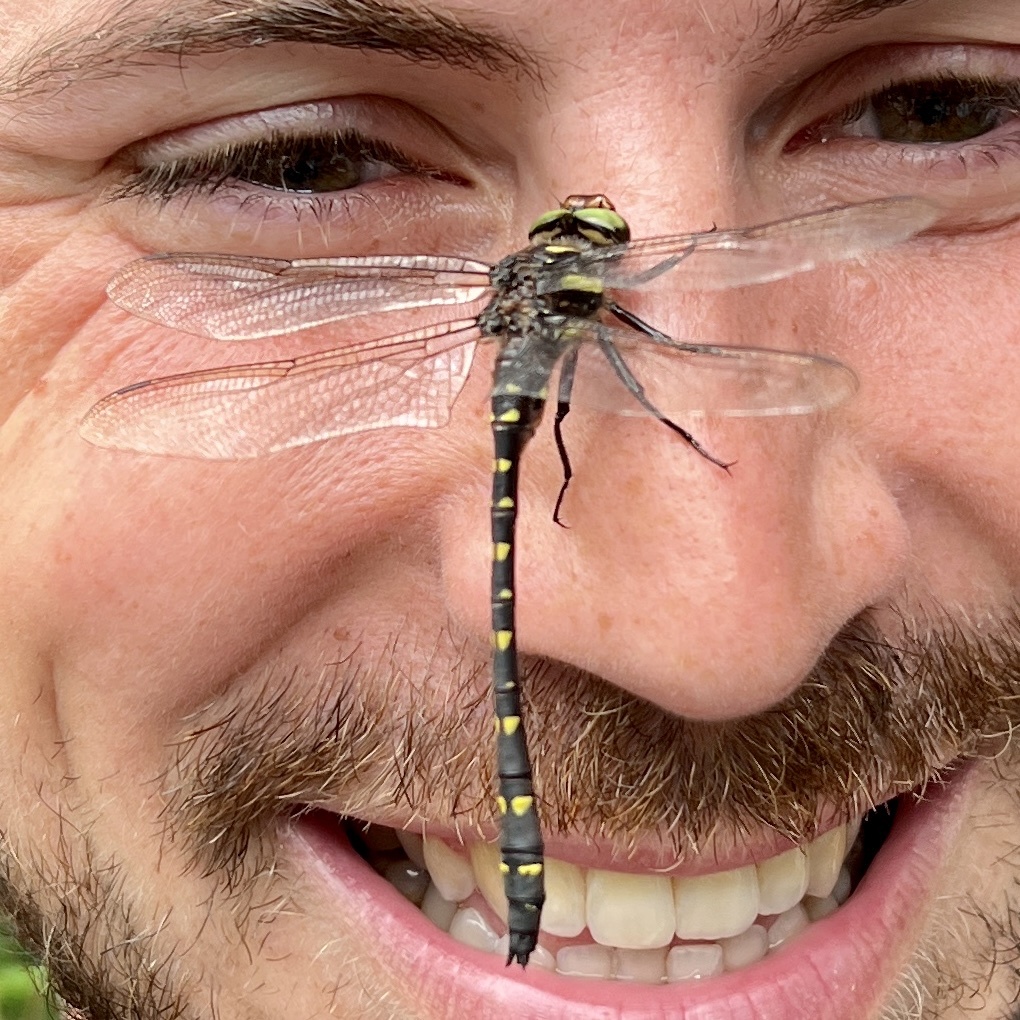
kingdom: Animalia
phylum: Arthropoda
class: Insecta
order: Odonata
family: Cordulegastridae
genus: Cordulegaster
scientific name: Cordulegaster maculata
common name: Twin-spotted spiketail
